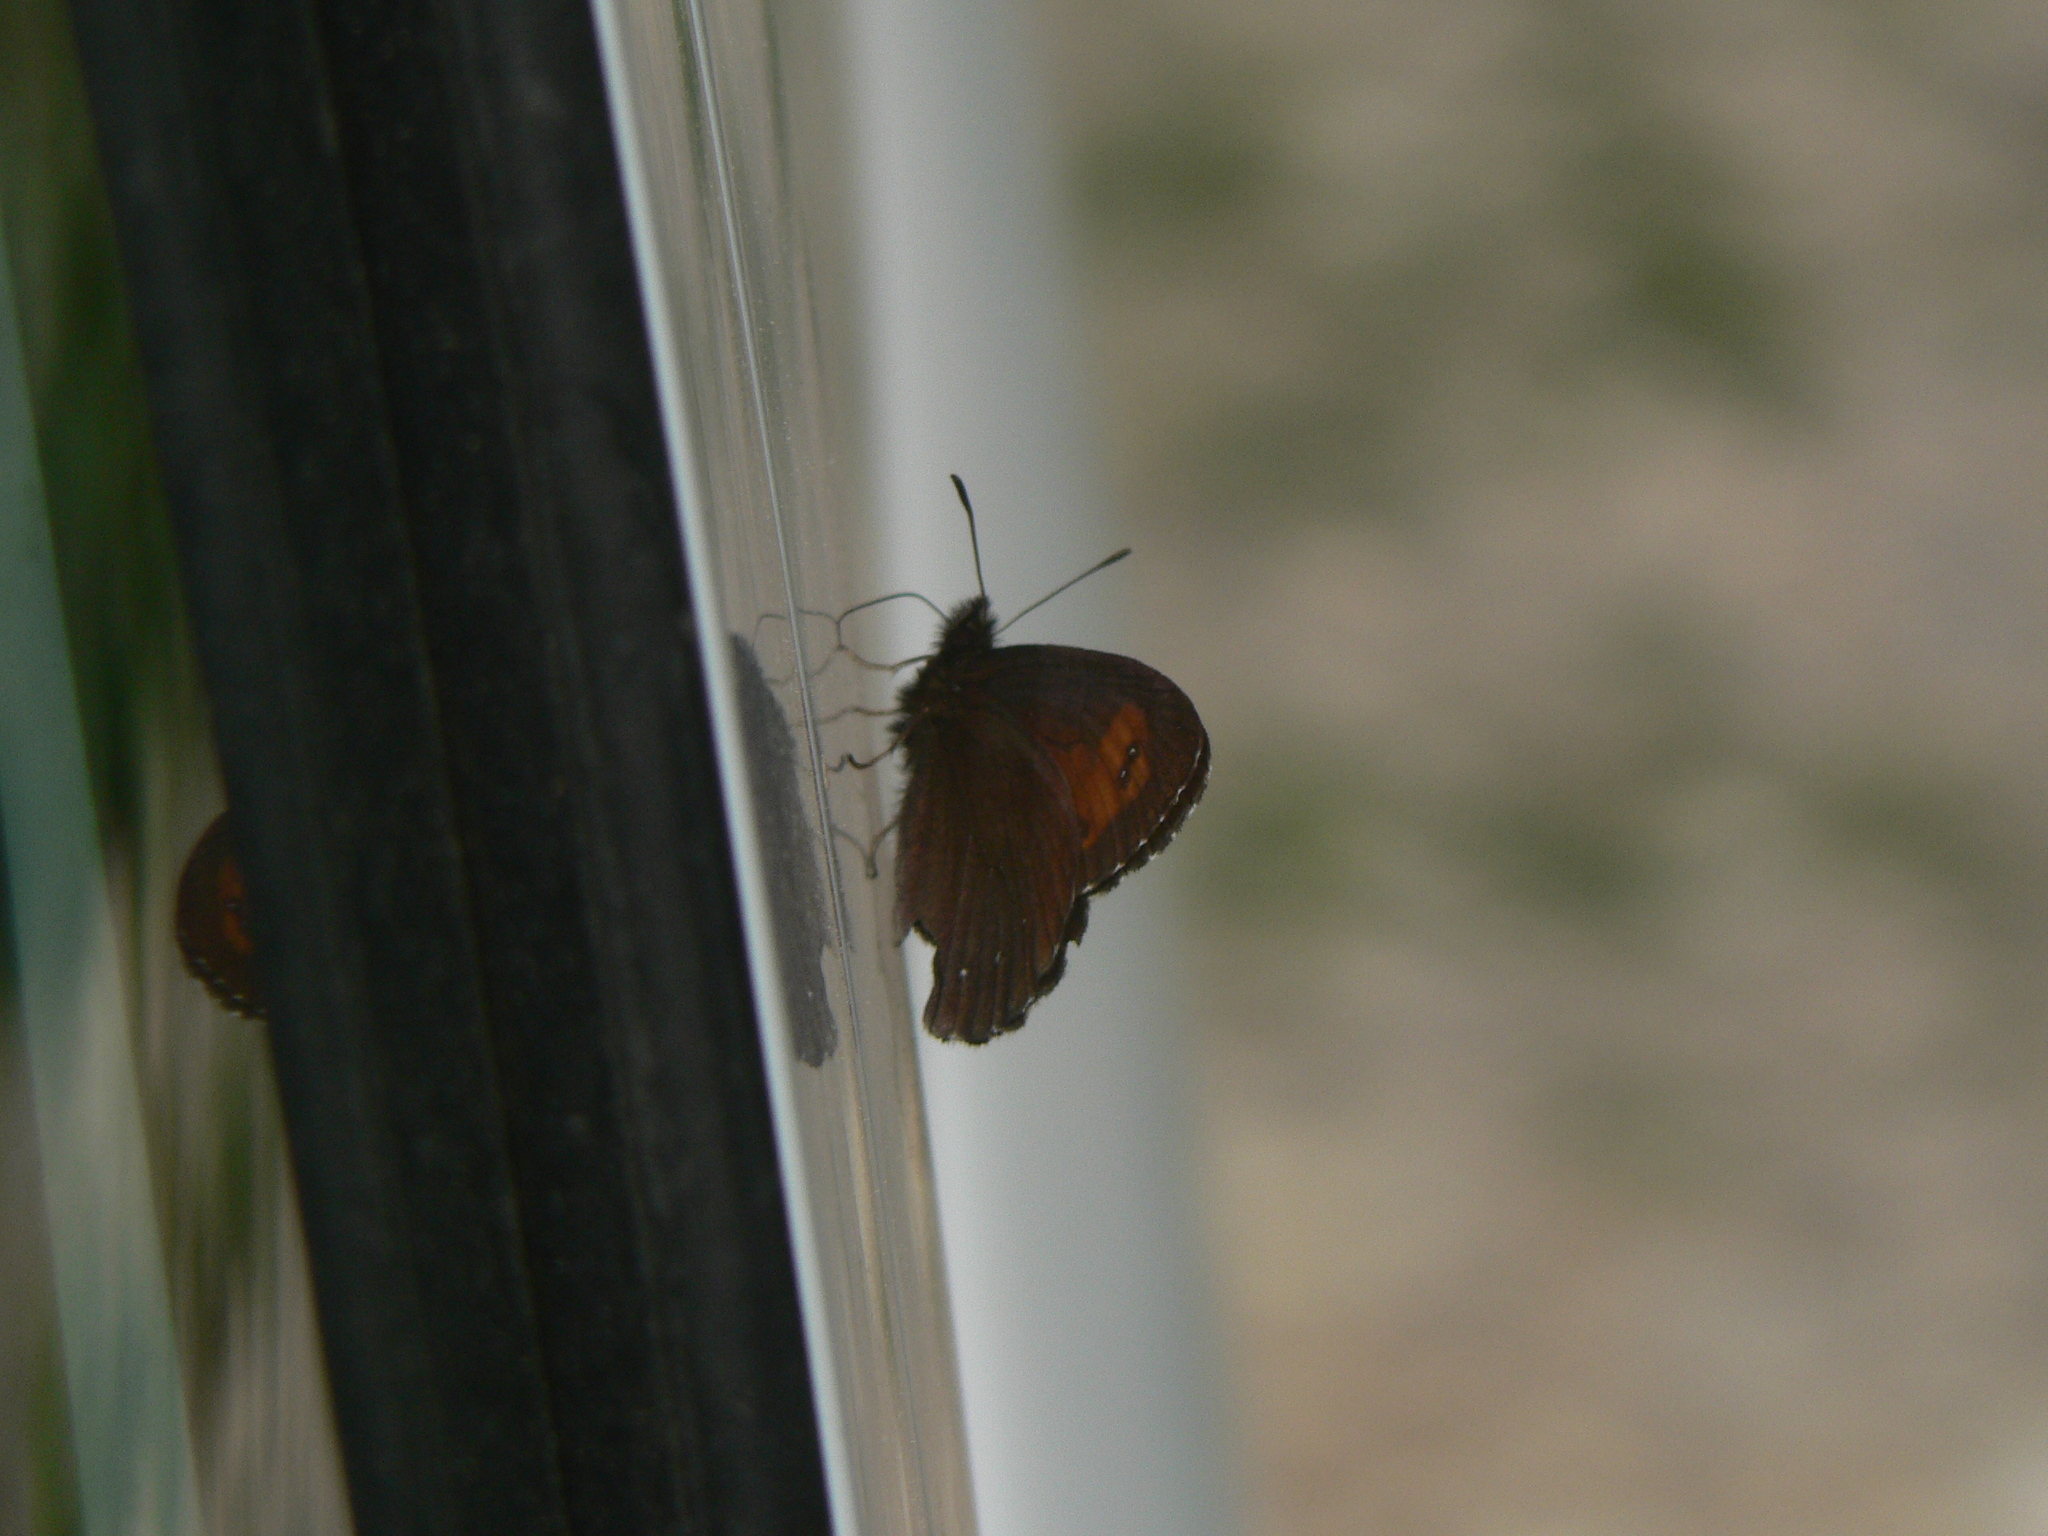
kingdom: Animalia
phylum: Arthropoda
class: Insecta
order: Lepidoptera
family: Nymphalidae
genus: Erebia
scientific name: Erebia euryale
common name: Large ringlet
